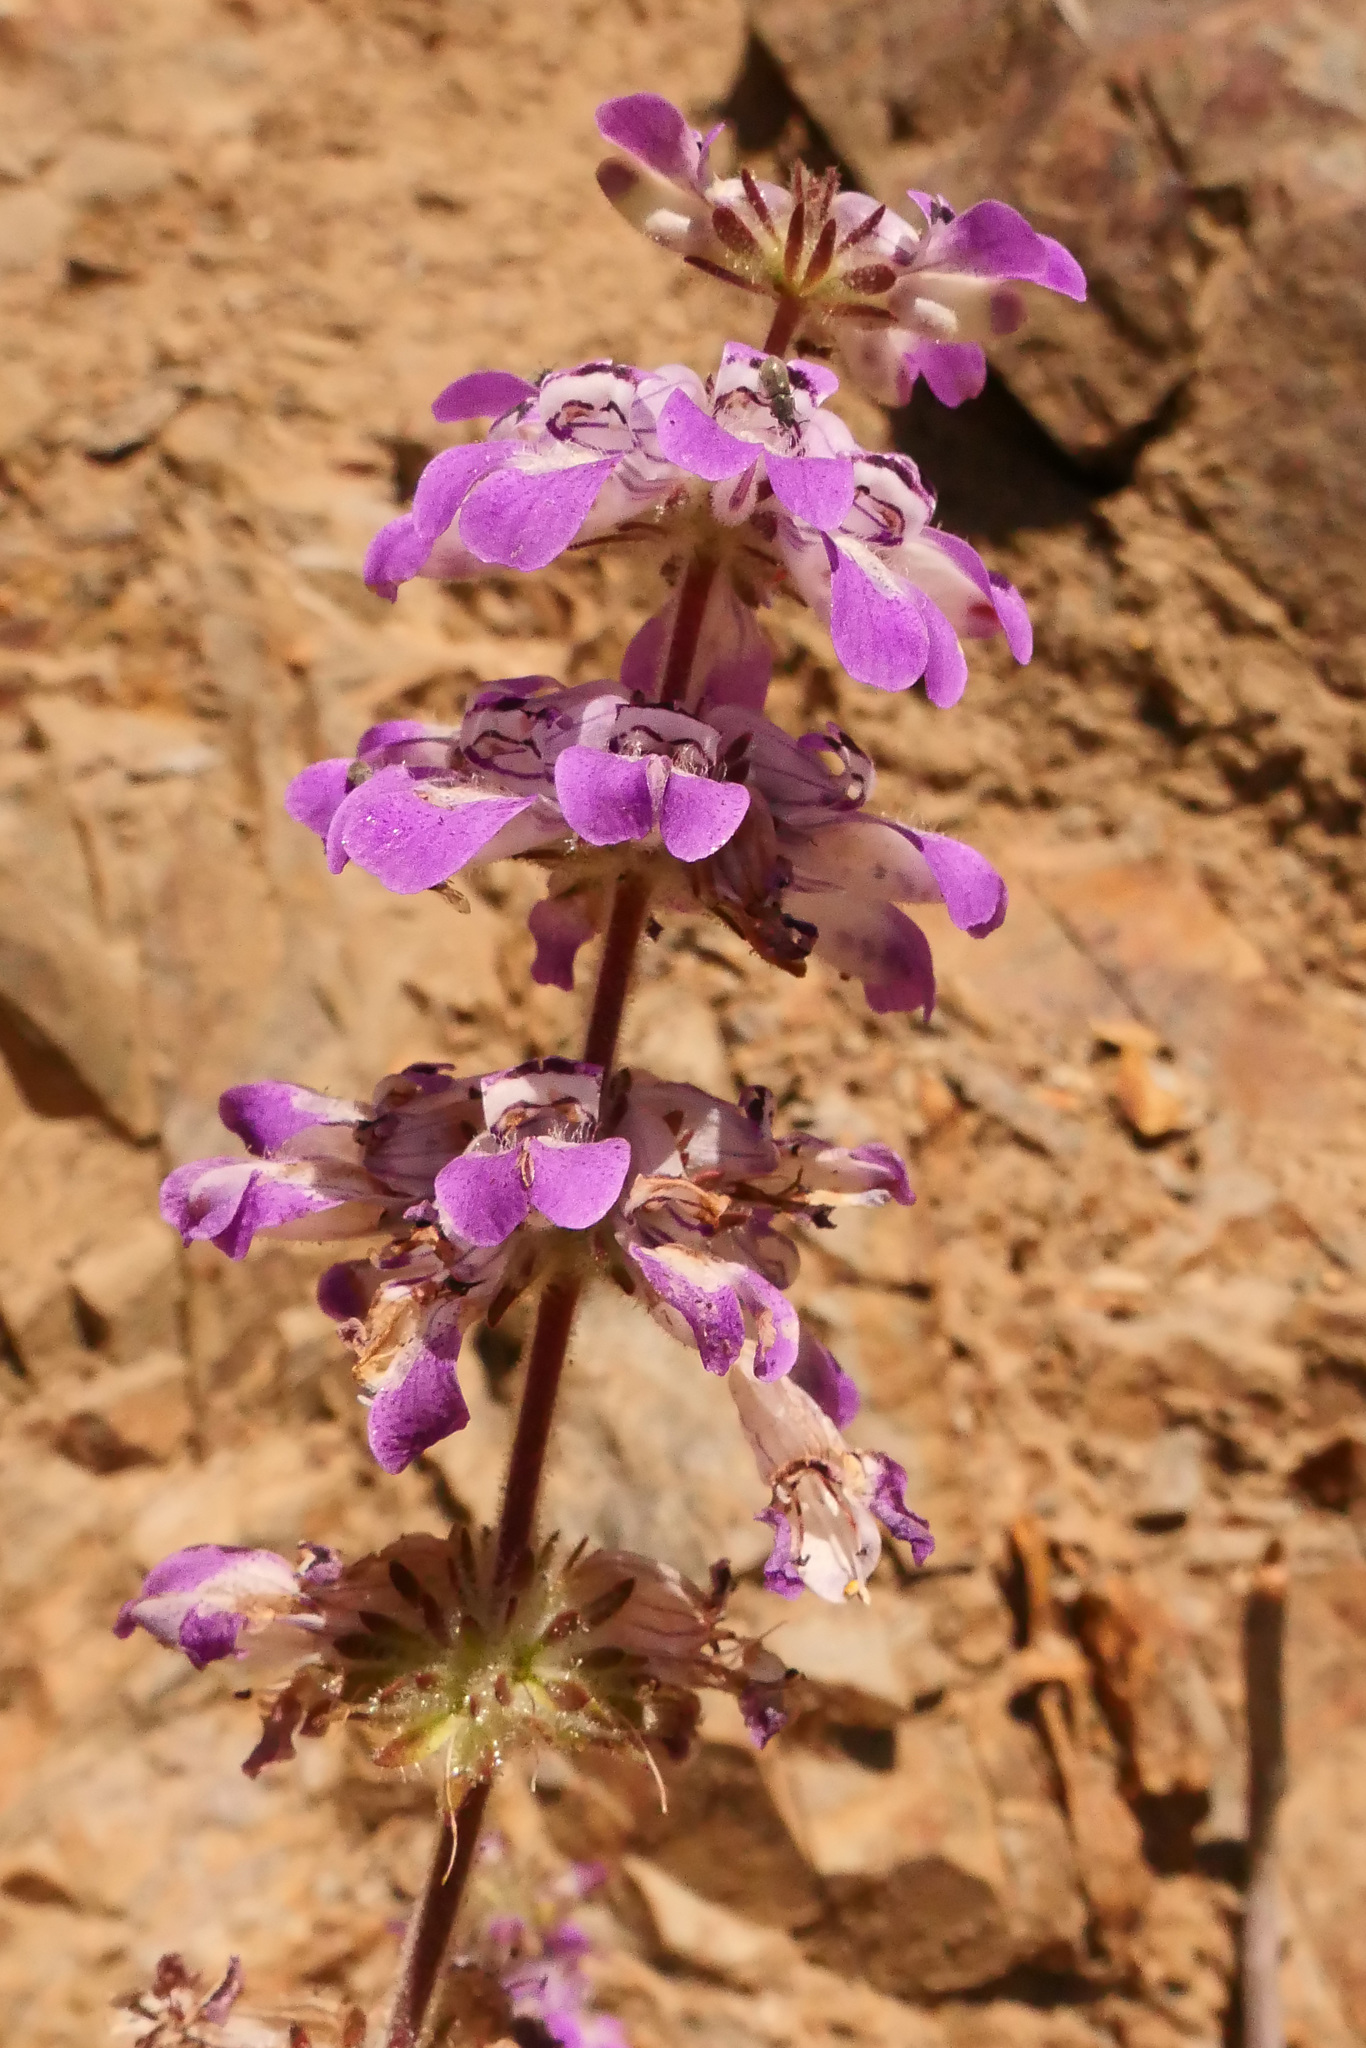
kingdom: Plantae
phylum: Tracheophyta
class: Magnoliopsida
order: Lamiales
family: Plantaginaceae
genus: Collinsia
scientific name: Collinsia tinctoria
